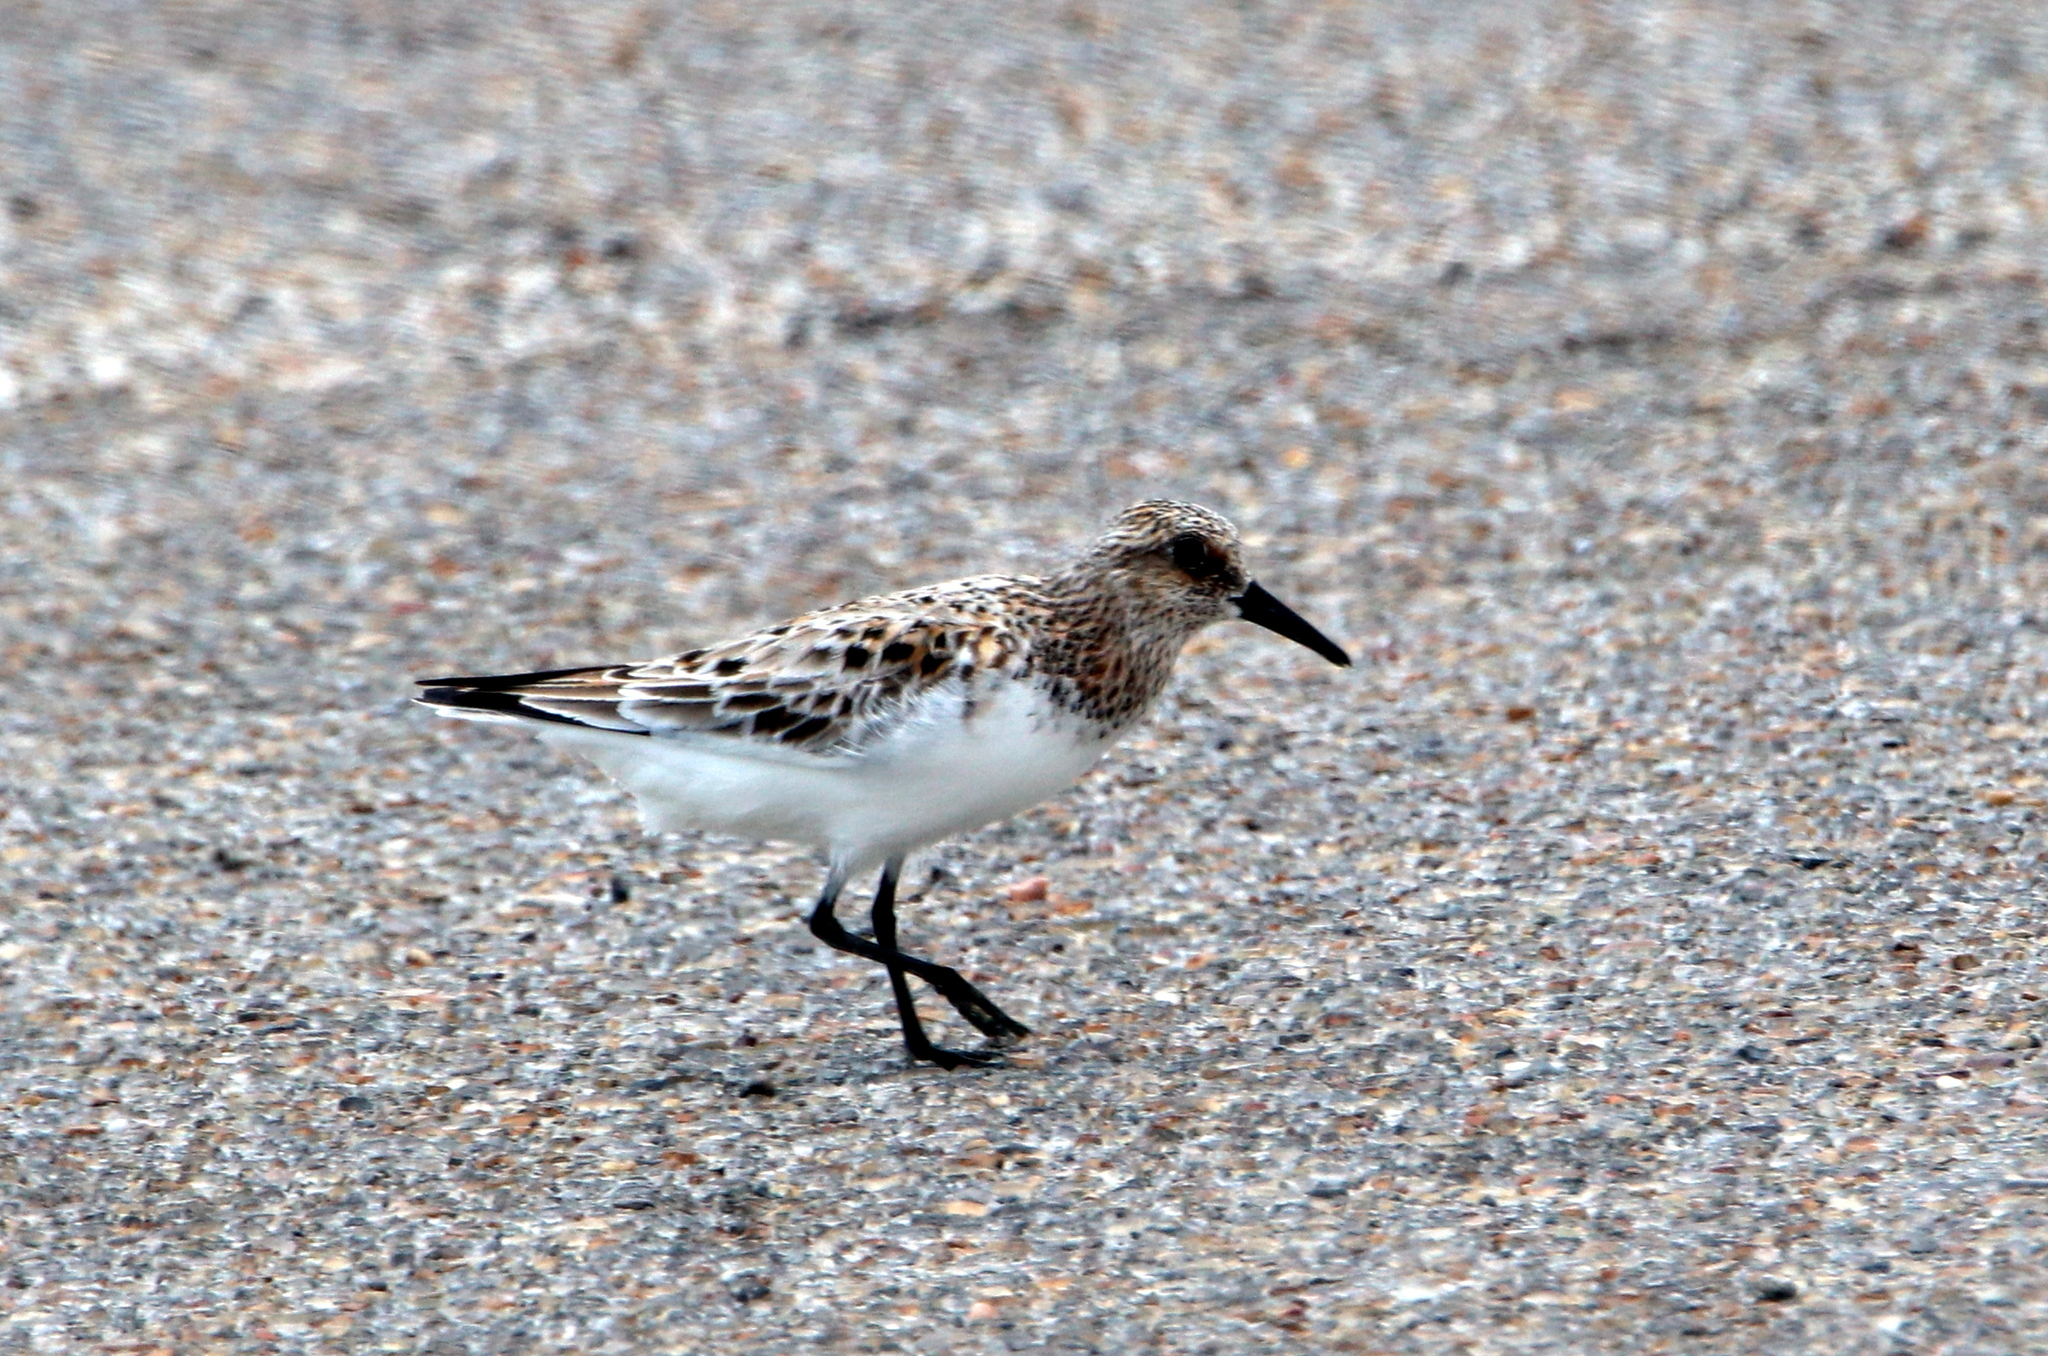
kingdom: Animalia
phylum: Chordata
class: Aves
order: Charadriiformes
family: Scolopacidae
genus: Calidris
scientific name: Calidris alba
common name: Sanderling
